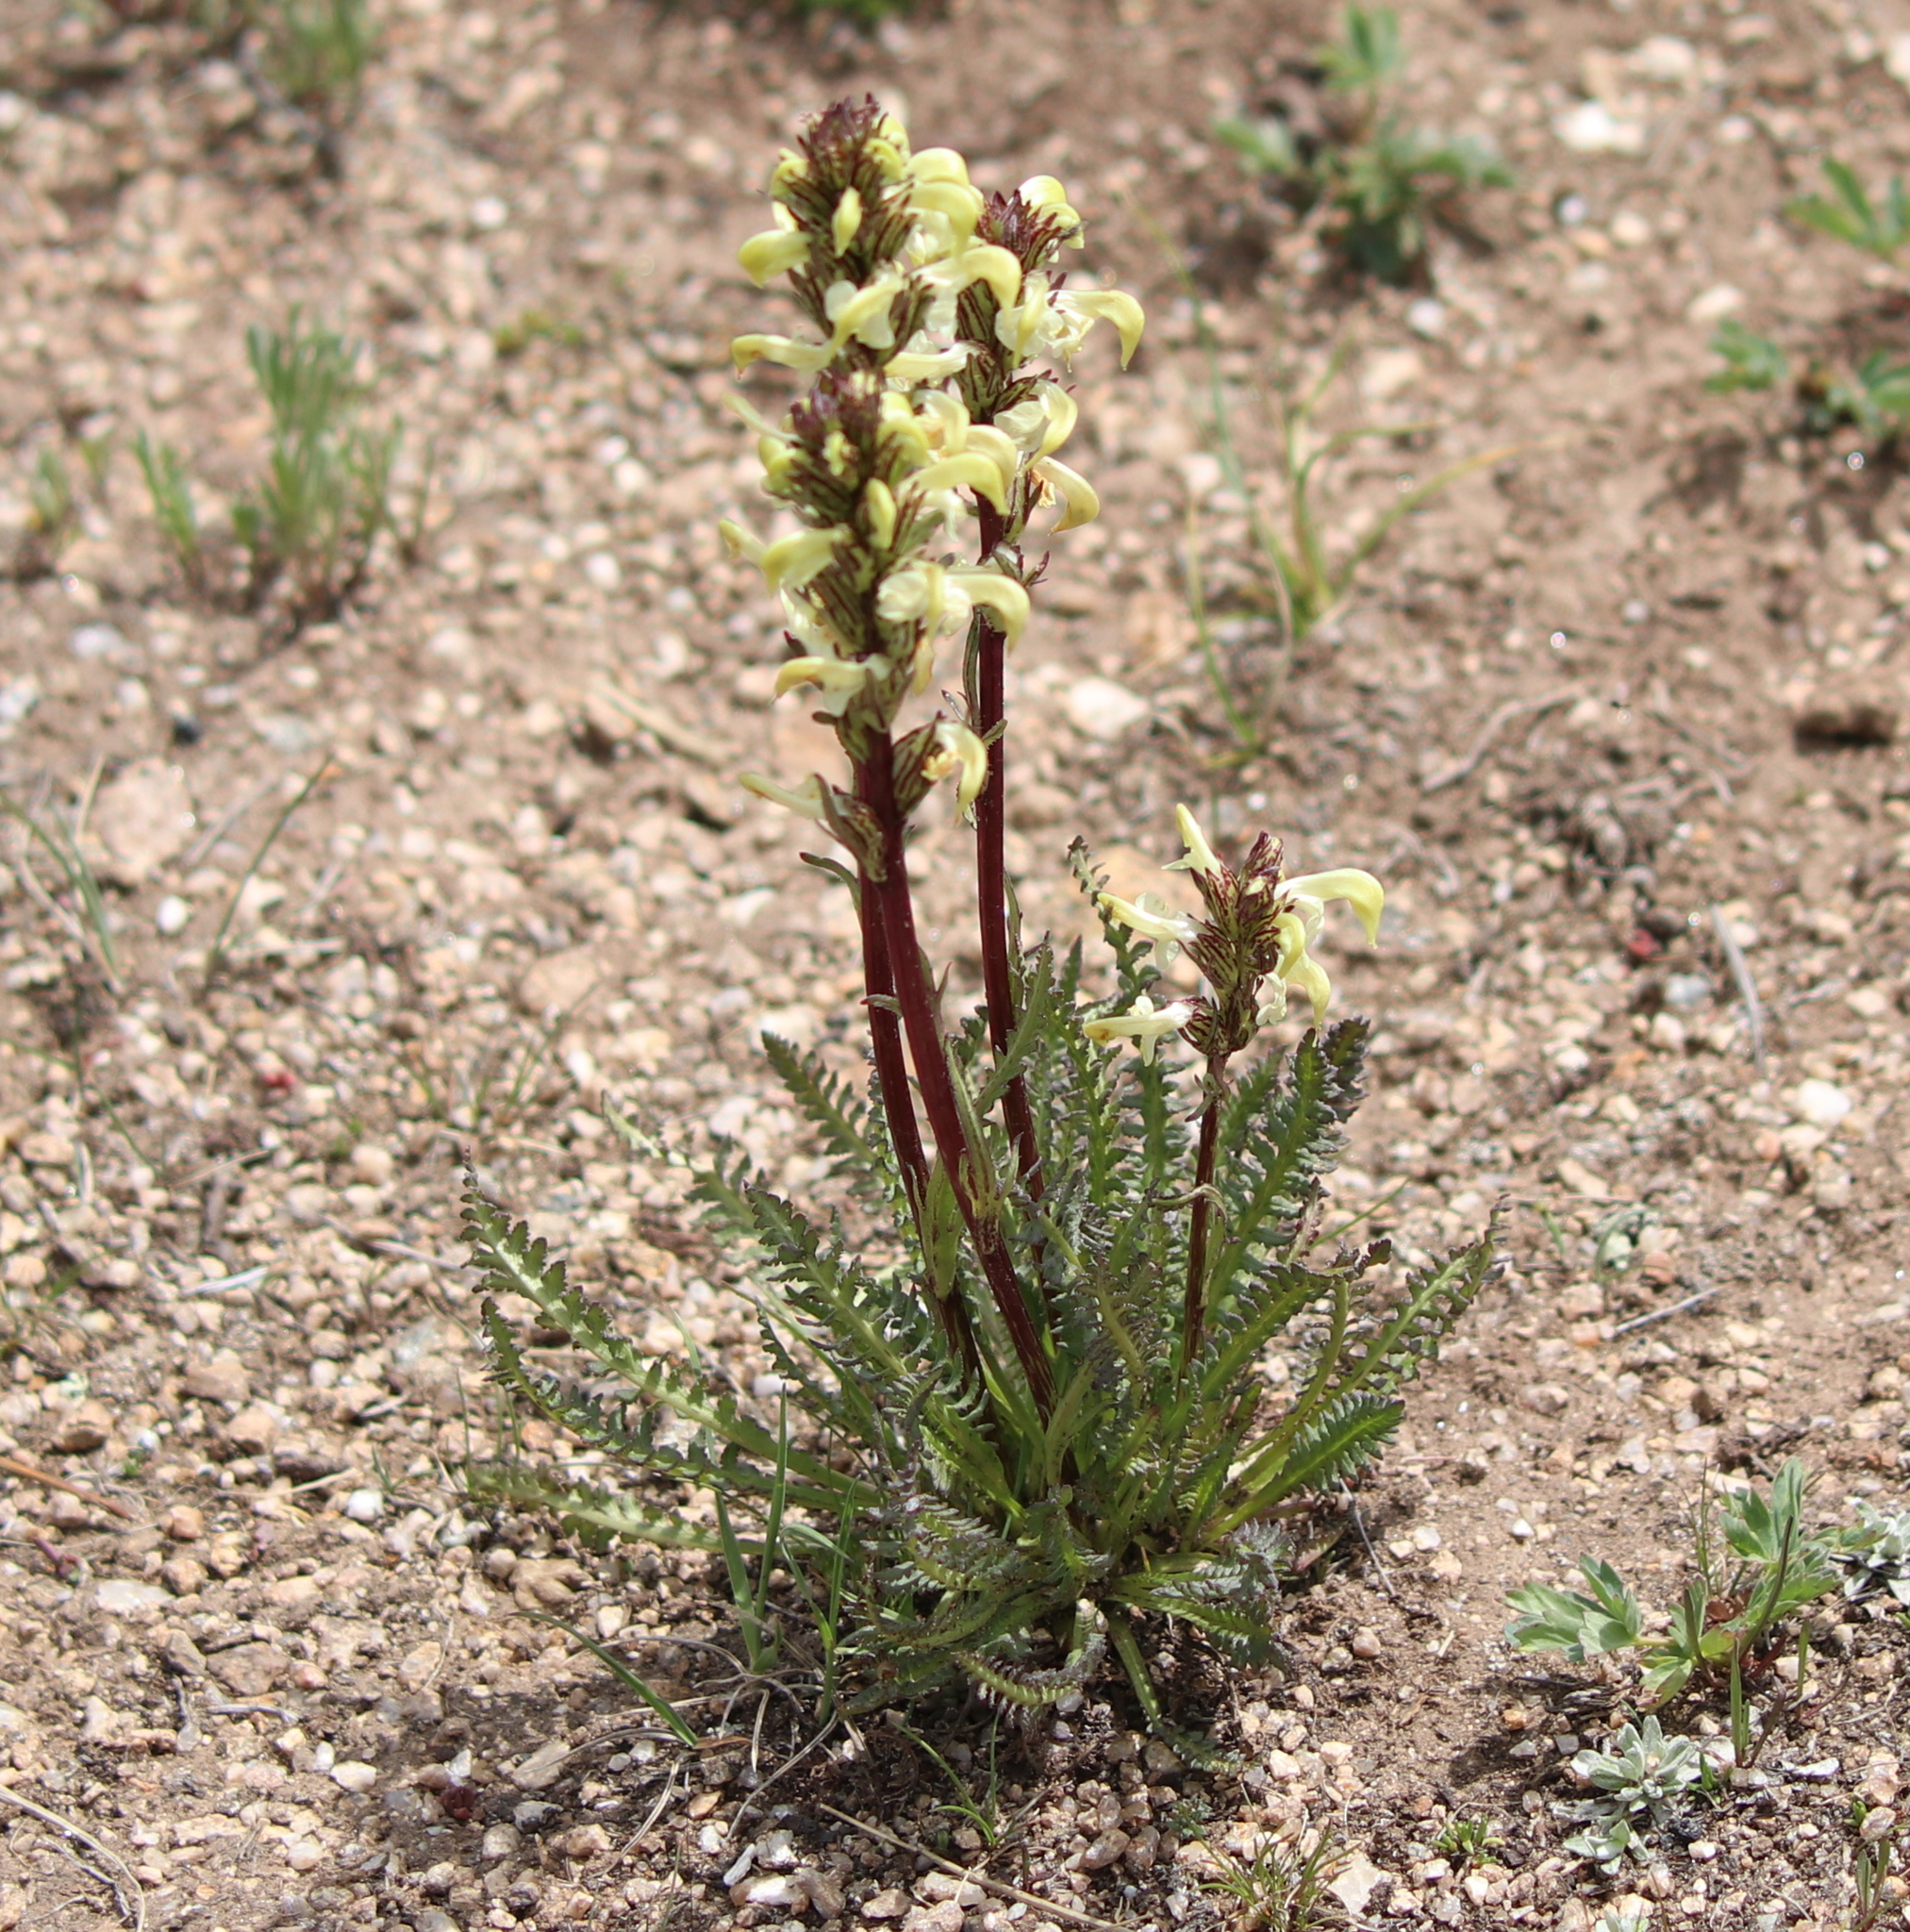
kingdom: Plantae
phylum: Tracheophyta
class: Magnoliopsida
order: Lamiales
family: Orobanchaceae
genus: Pedicularis
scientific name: Pedicularis parryi
